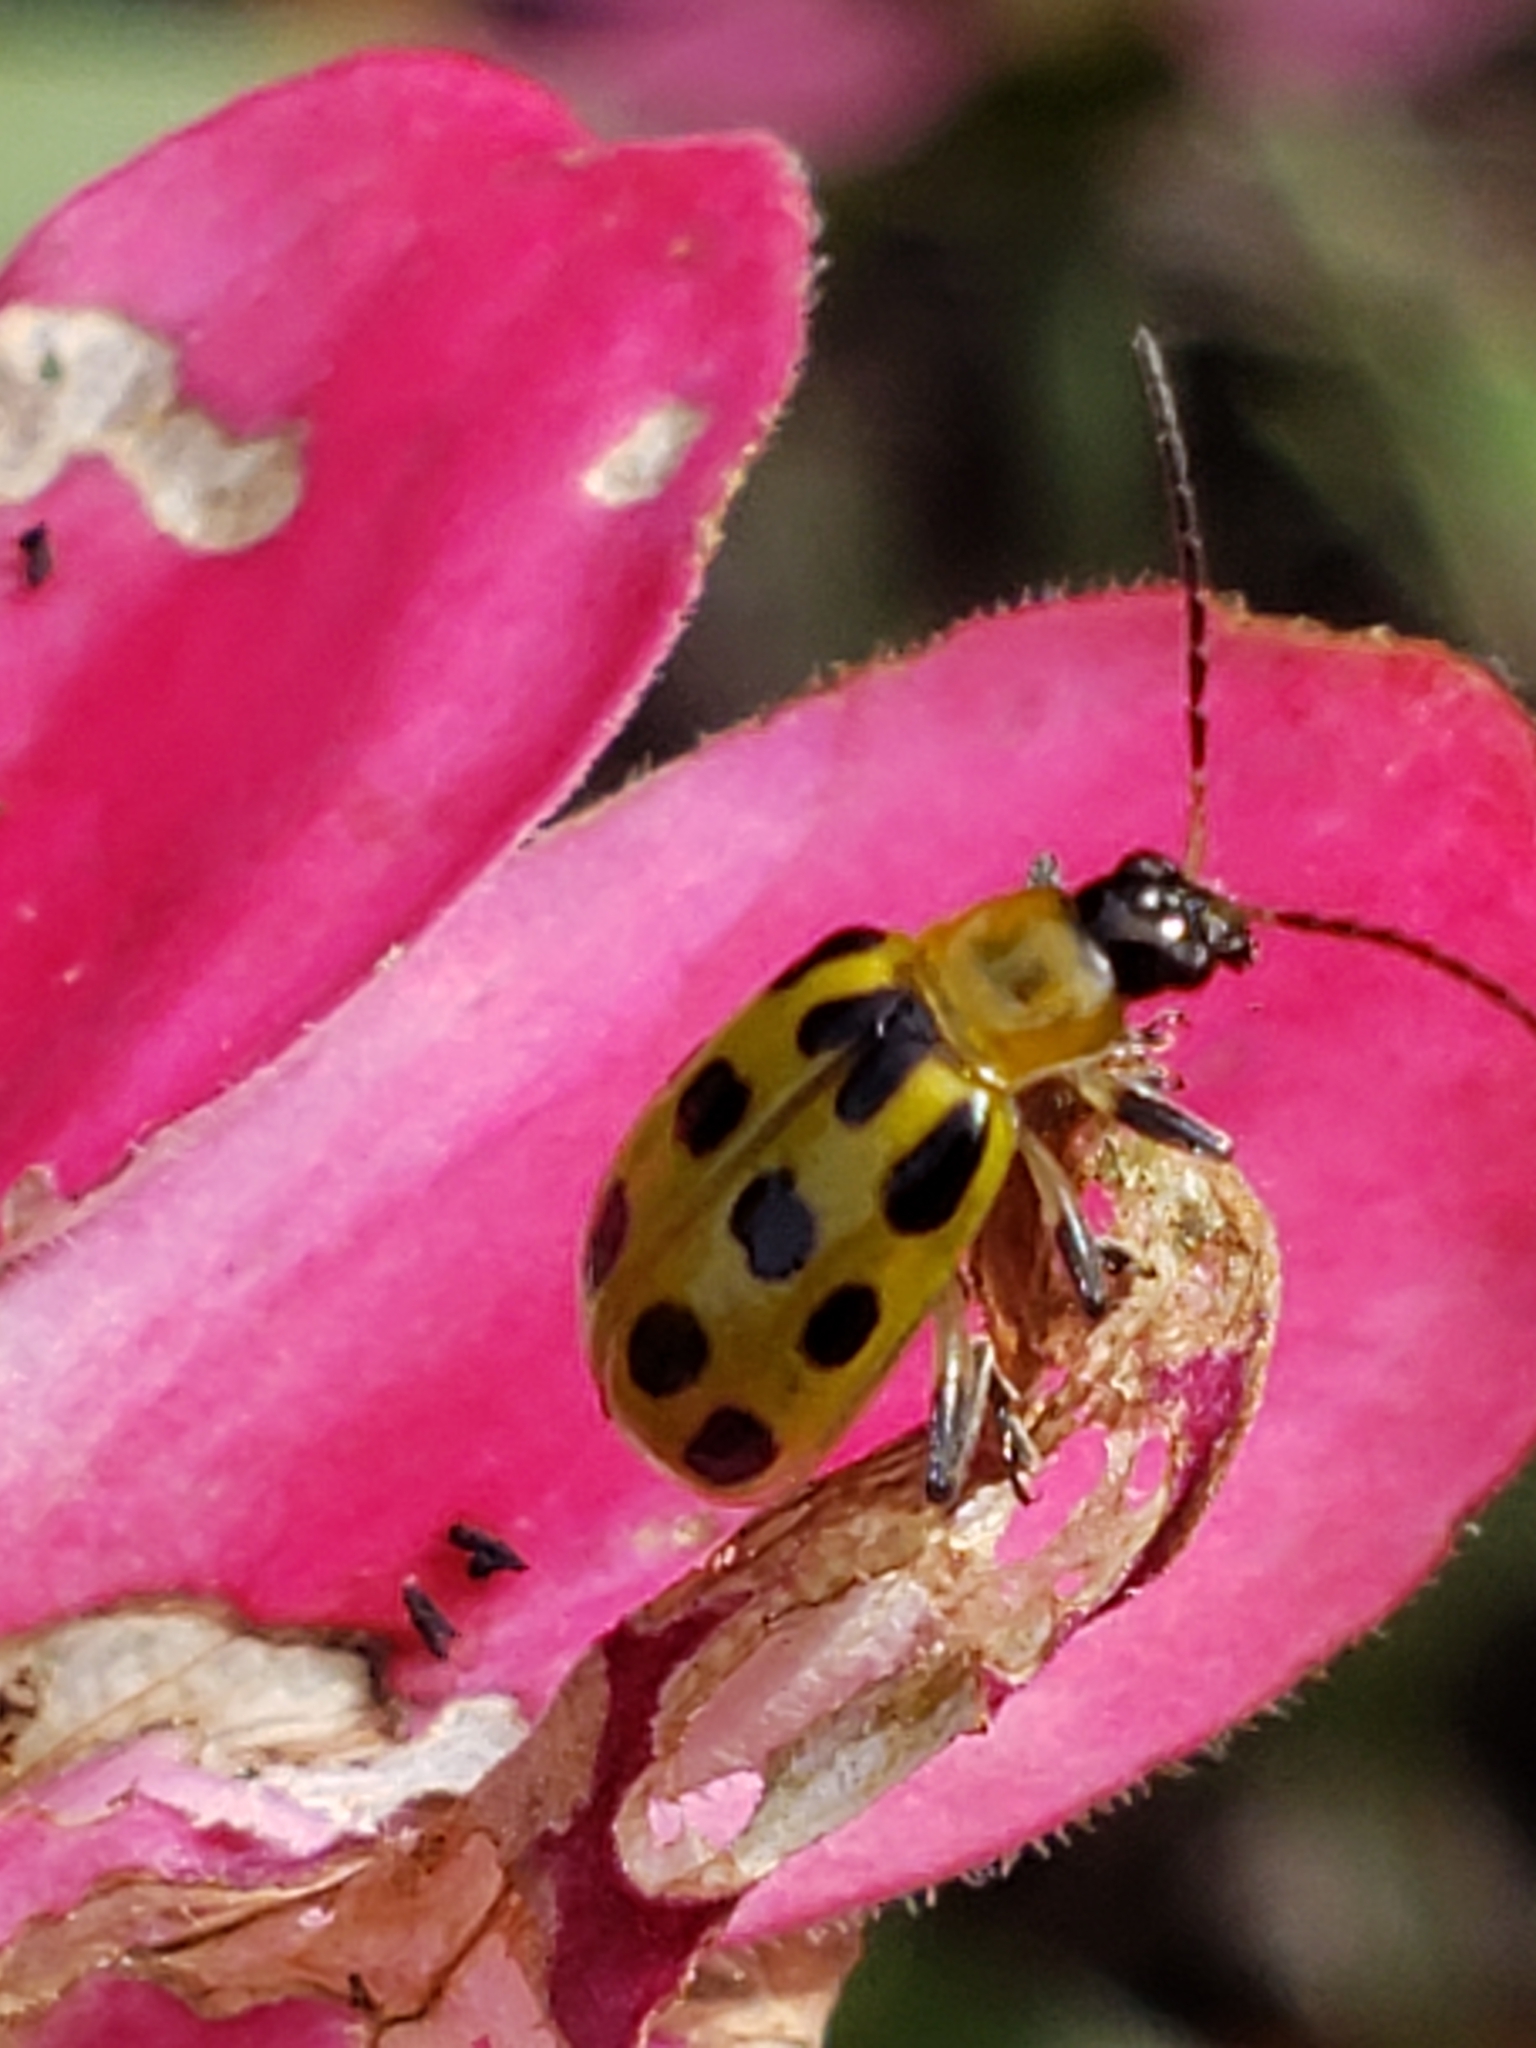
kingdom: Animalia
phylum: Arthropoda
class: Insecta
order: Coleoptera
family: Chrysomelidae
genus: Diabrotica
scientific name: Diabrotica undecimpunctata
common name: Spotted cucumber beetle
